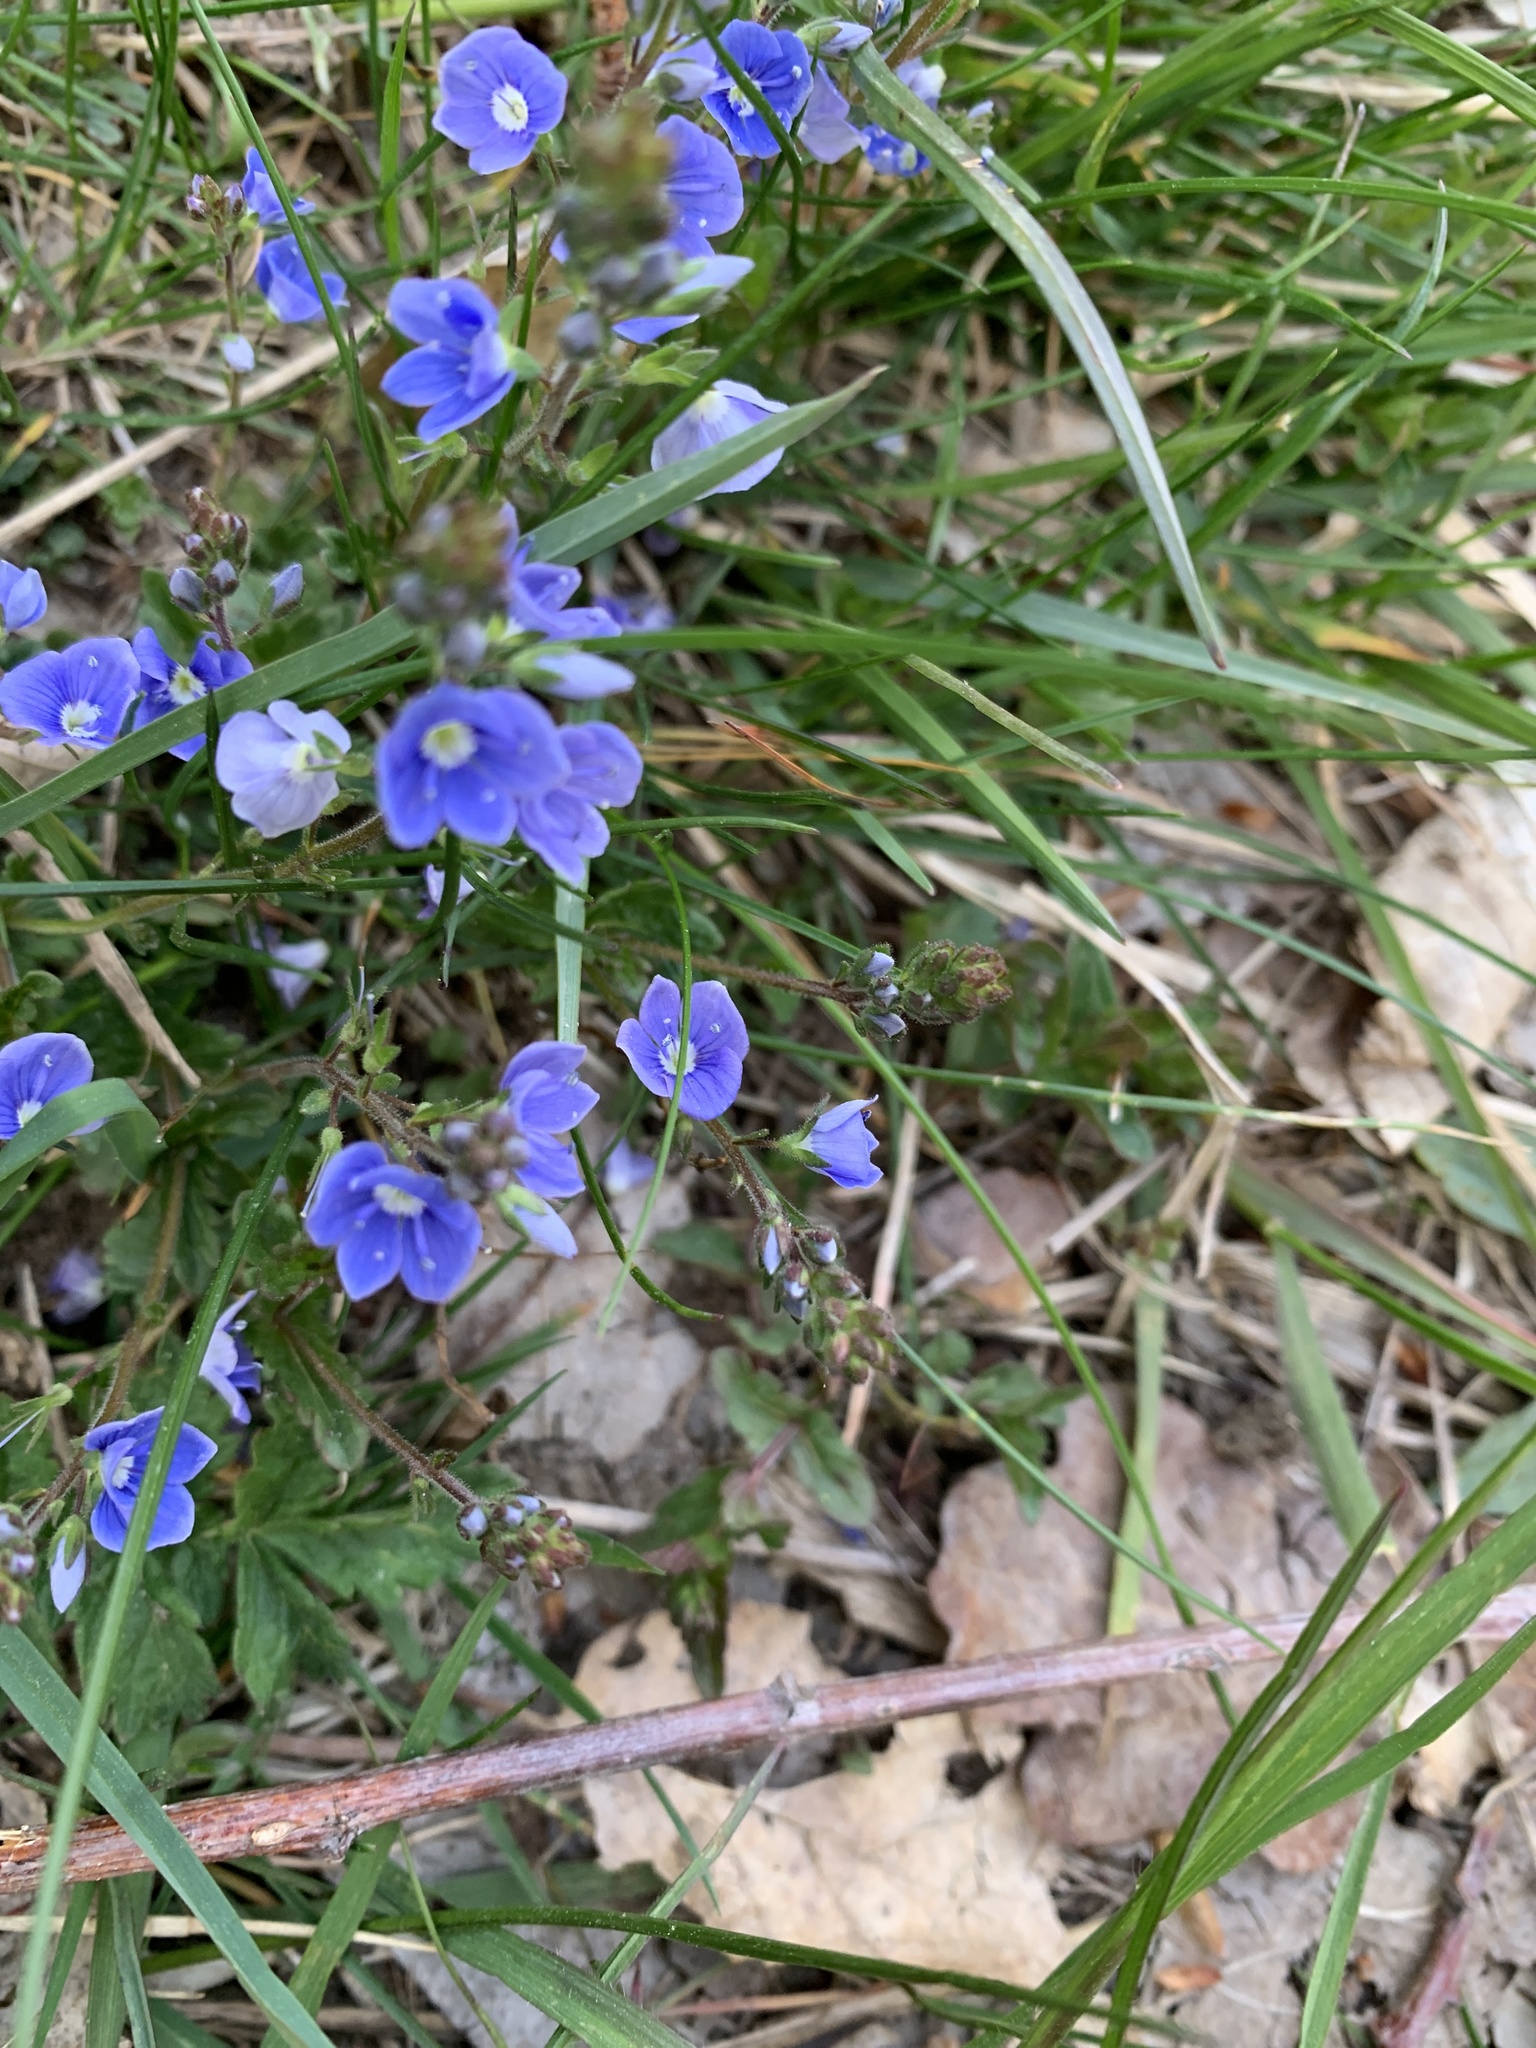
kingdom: Plantae
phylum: Tracheophyta
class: Magnoliopsida
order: Lamiales
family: Plantaginaceae
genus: Veronica
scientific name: Veronica chamaedrys
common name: Germander speedwell
